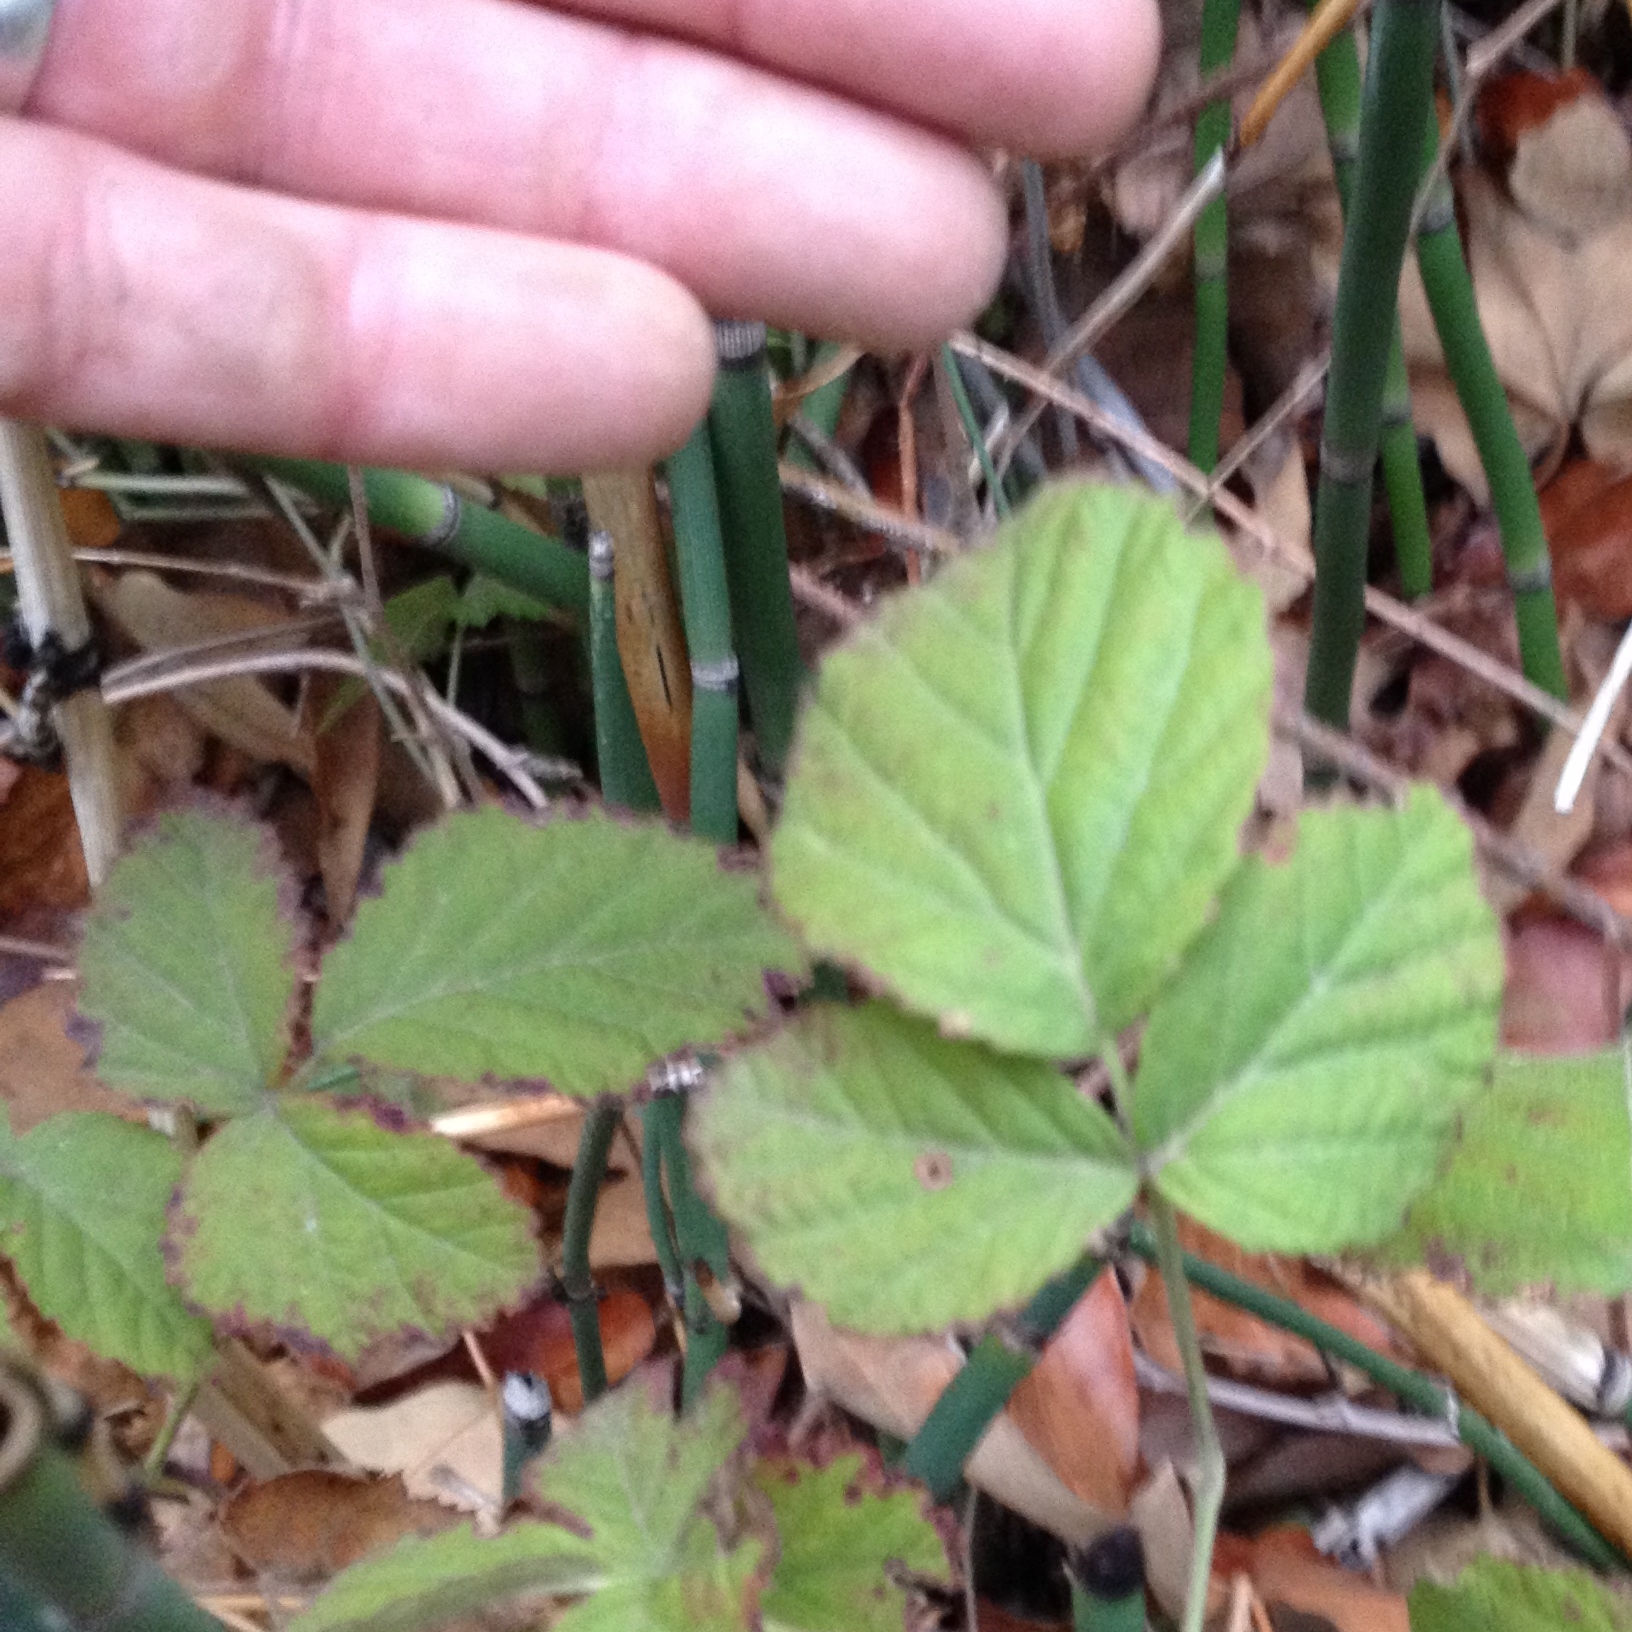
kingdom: Plantae
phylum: Tracheophyta
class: Magnoliopsida
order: Rosales
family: Rosaceae
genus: Rubus
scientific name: Rubus ursinus
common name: Pacific blackberry
